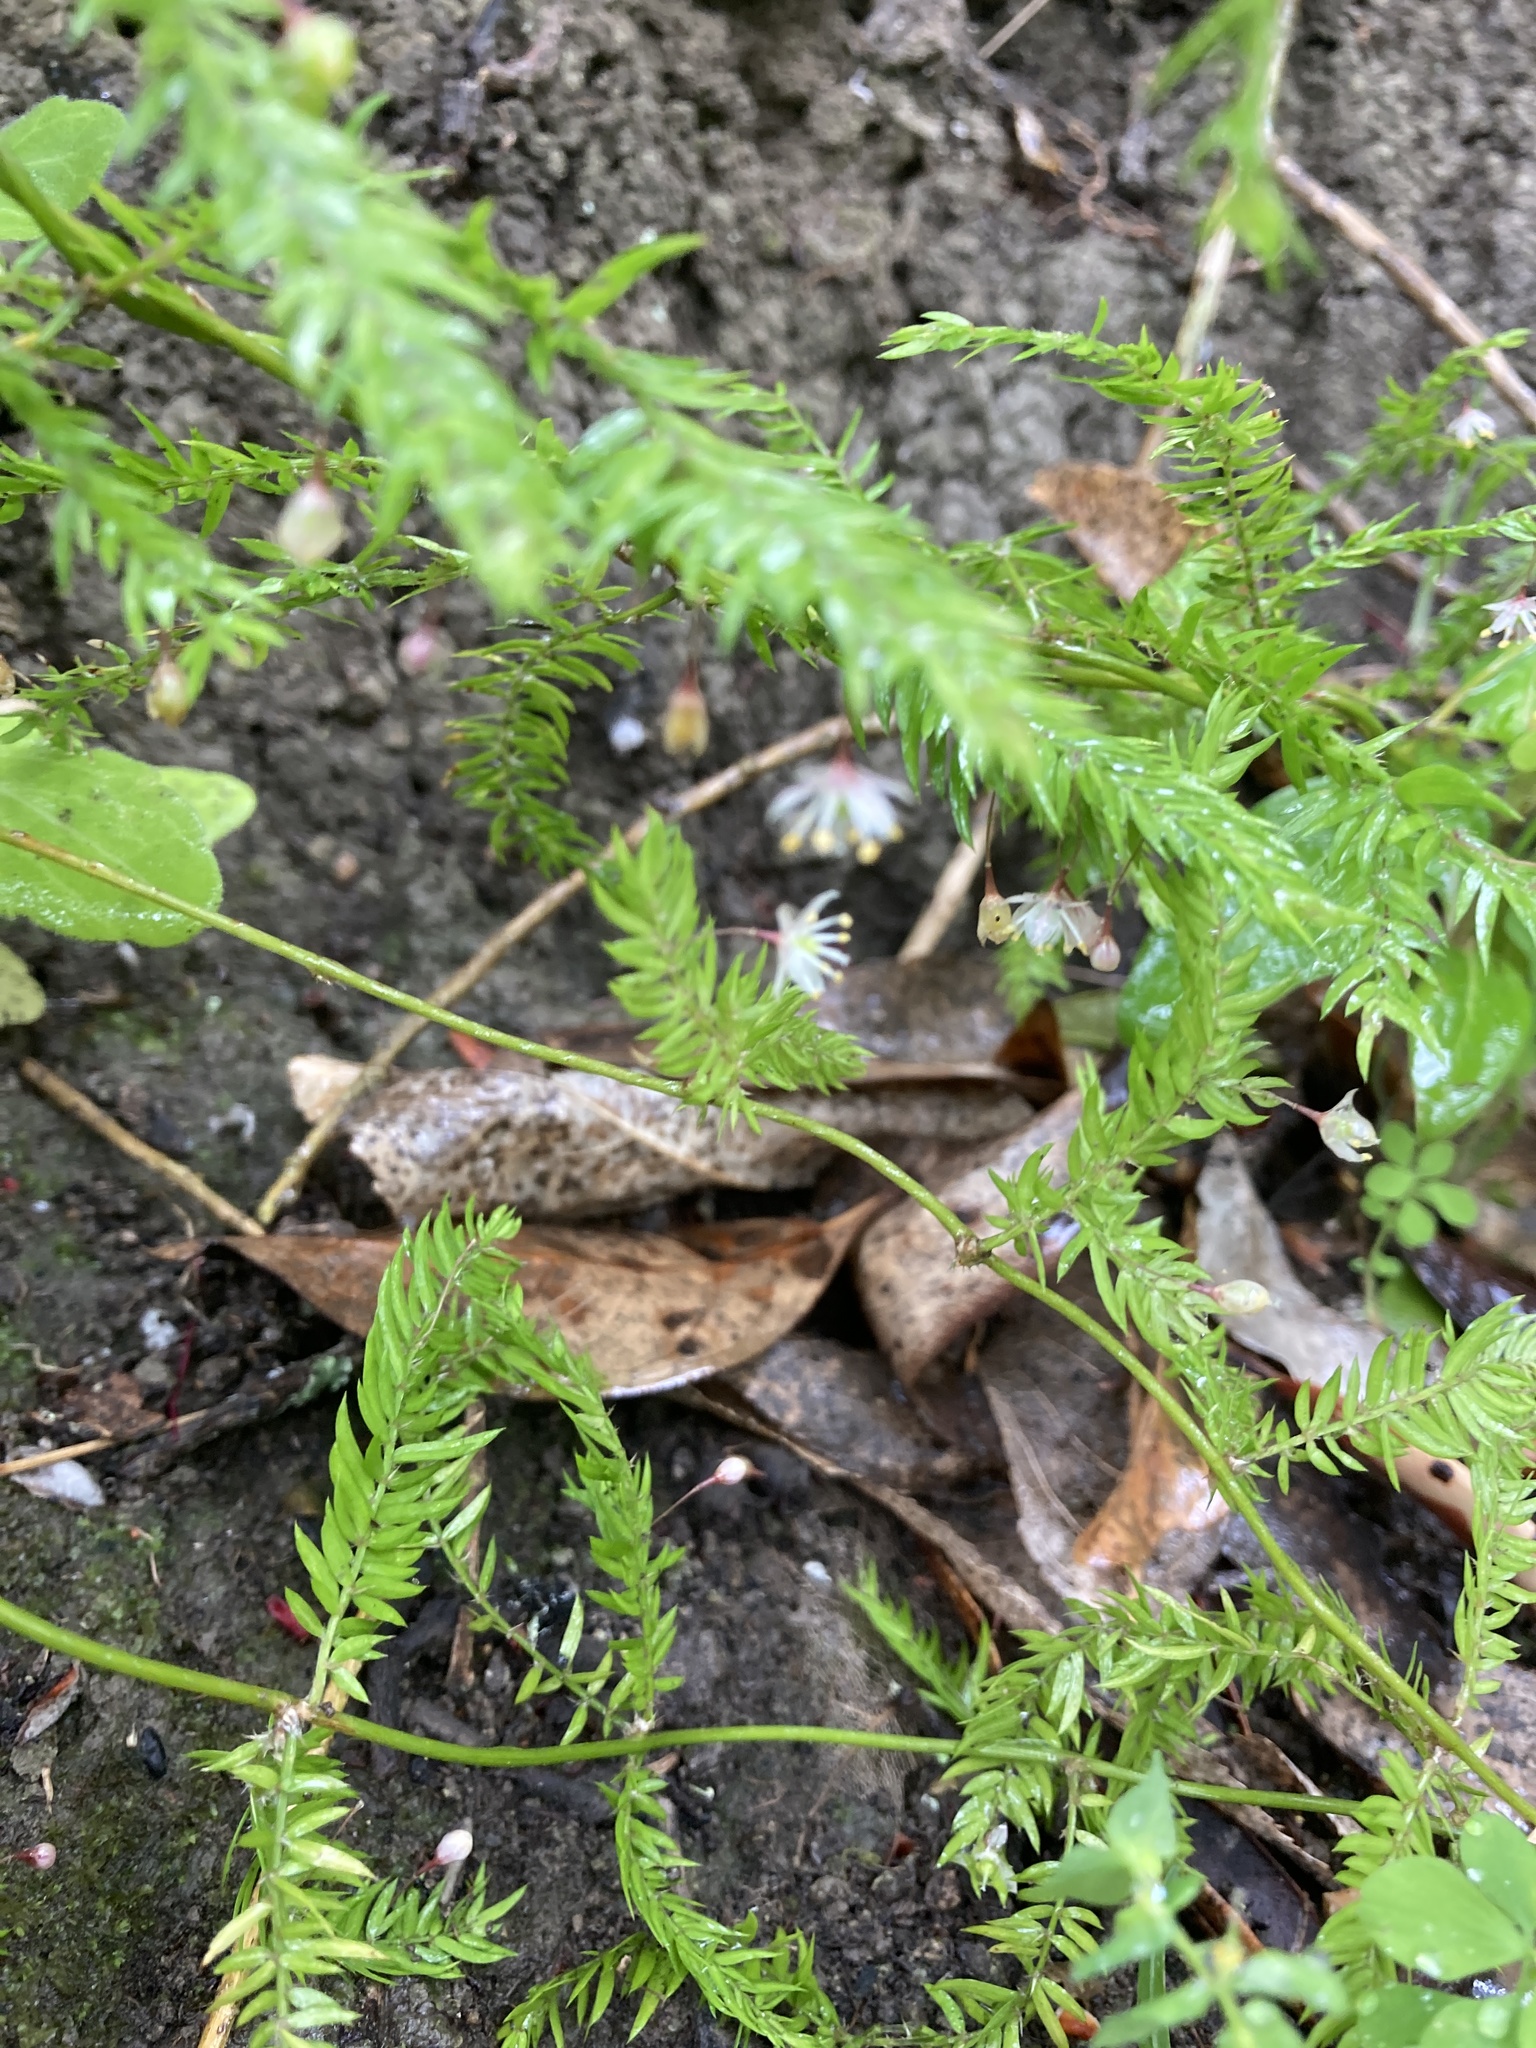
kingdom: Plantae
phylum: Tracheophyta
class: Liliopsida
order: Asparagales
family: Asparagaceae
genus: Asparagus
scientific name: Asparagus scandens
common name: Asparagus-fern
